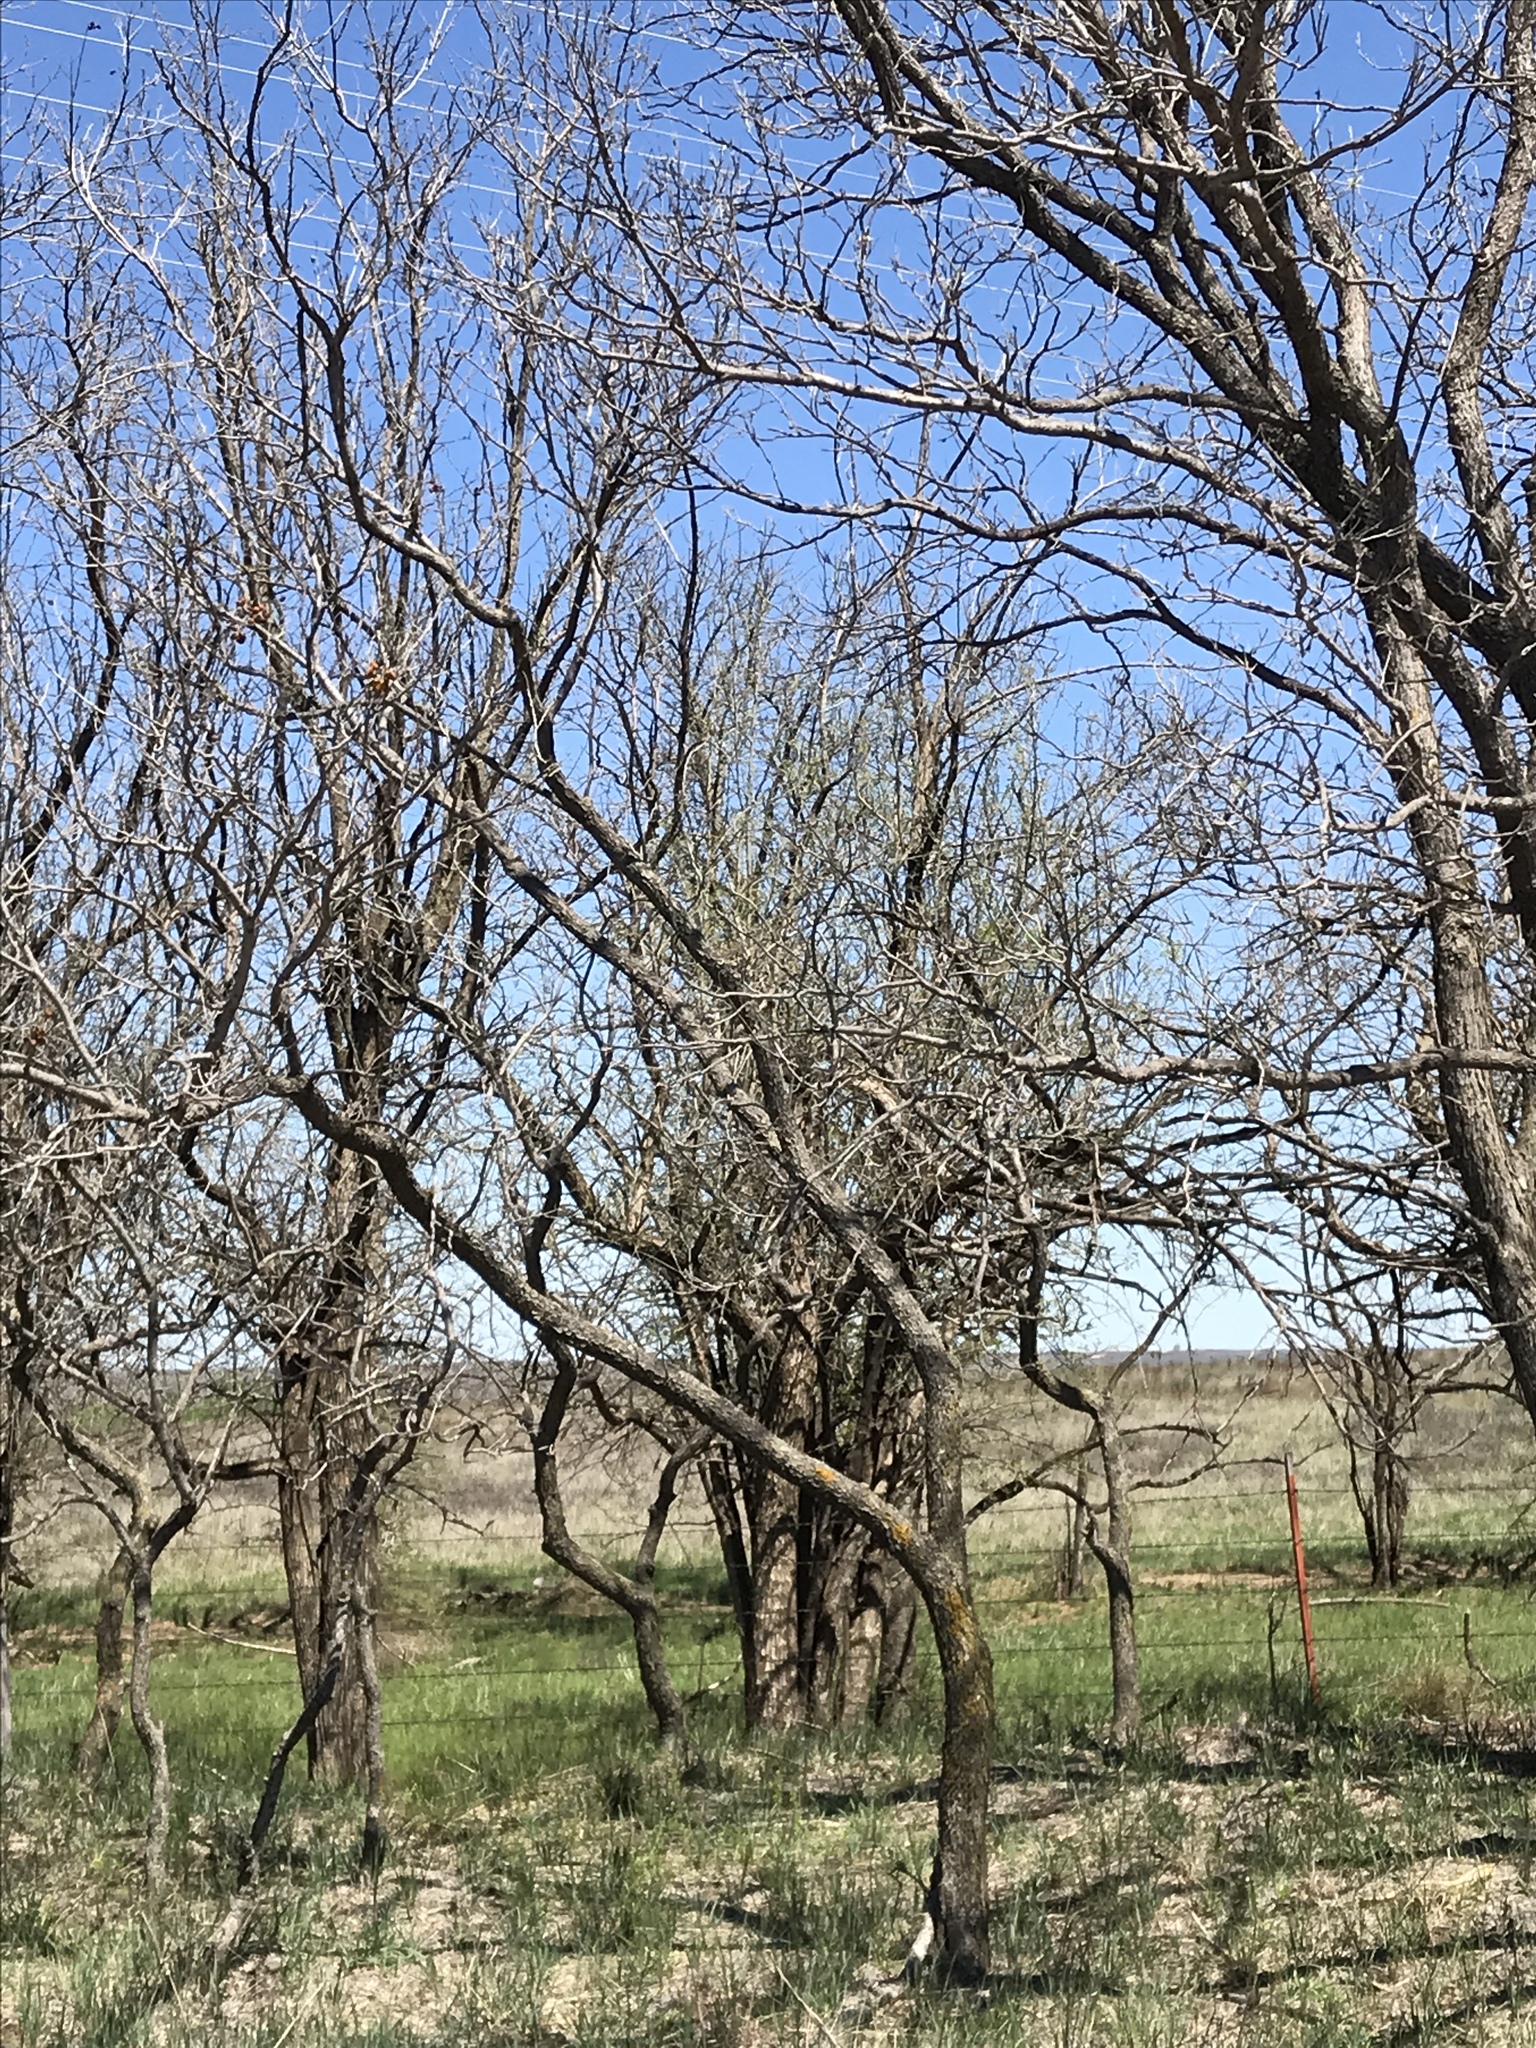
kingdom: Plantae
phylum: Tracheophyta
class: Magnoliopsida
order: Sapindales
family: Sapindaceae
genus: Sapindus
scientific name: Sapindus drummondii
